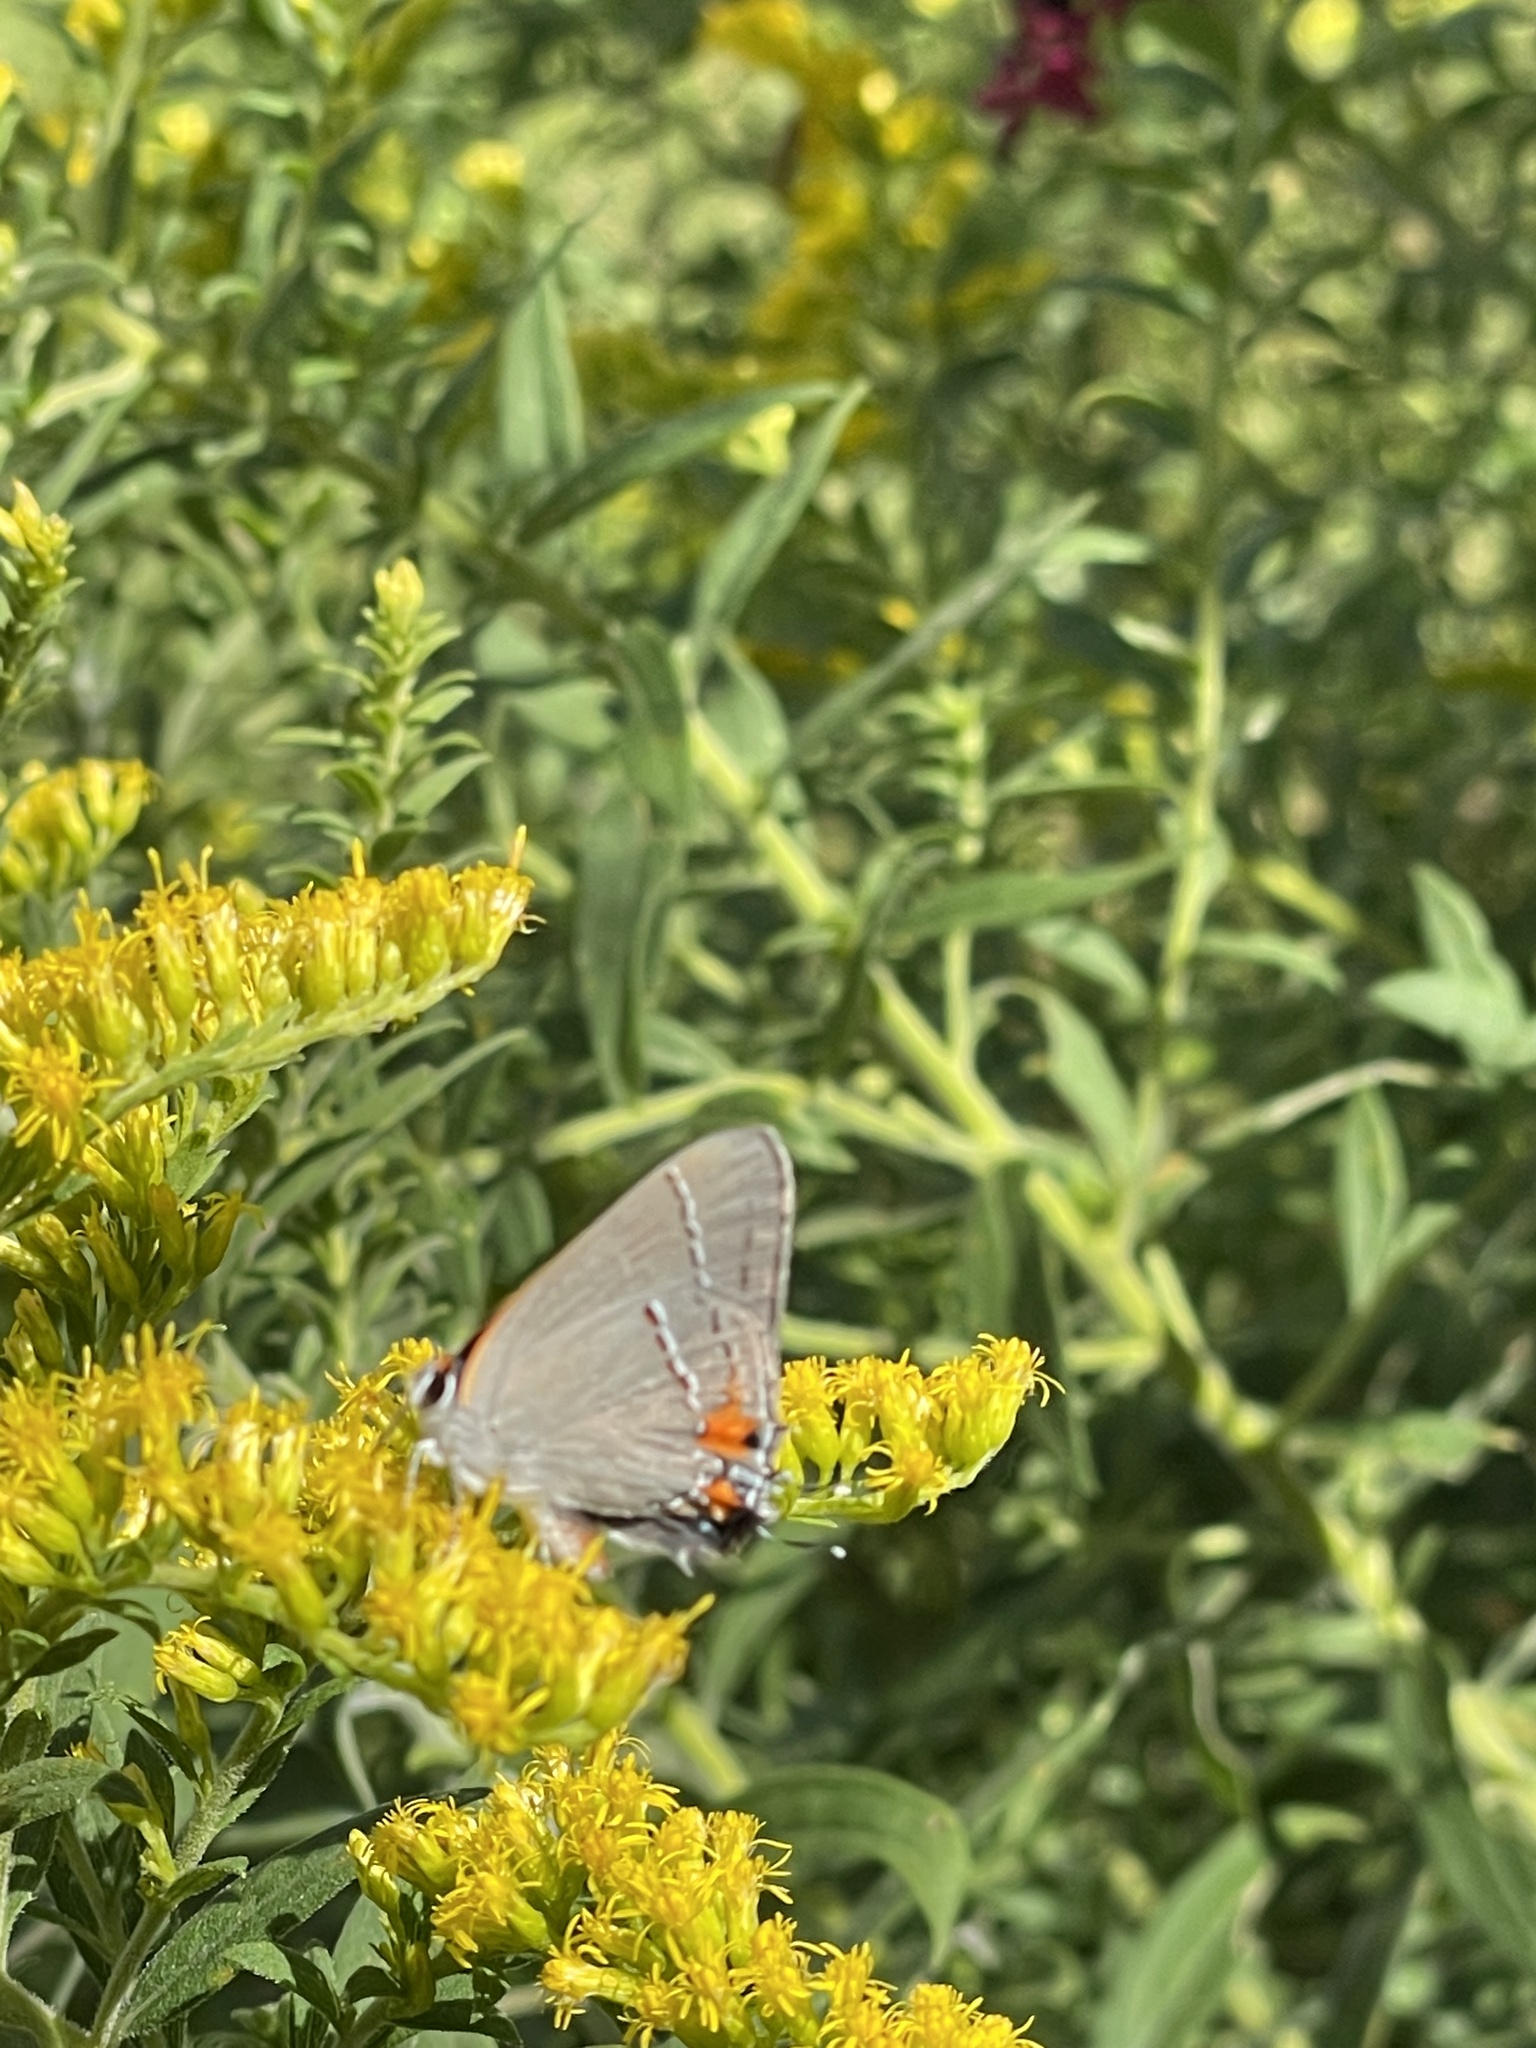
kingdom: Animalia
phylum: Arthropoda
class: Insecta
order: Lepidoptera
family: Lycaenidae
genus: Strymon
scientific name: Strymon melinus
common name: Gray hairstreak
